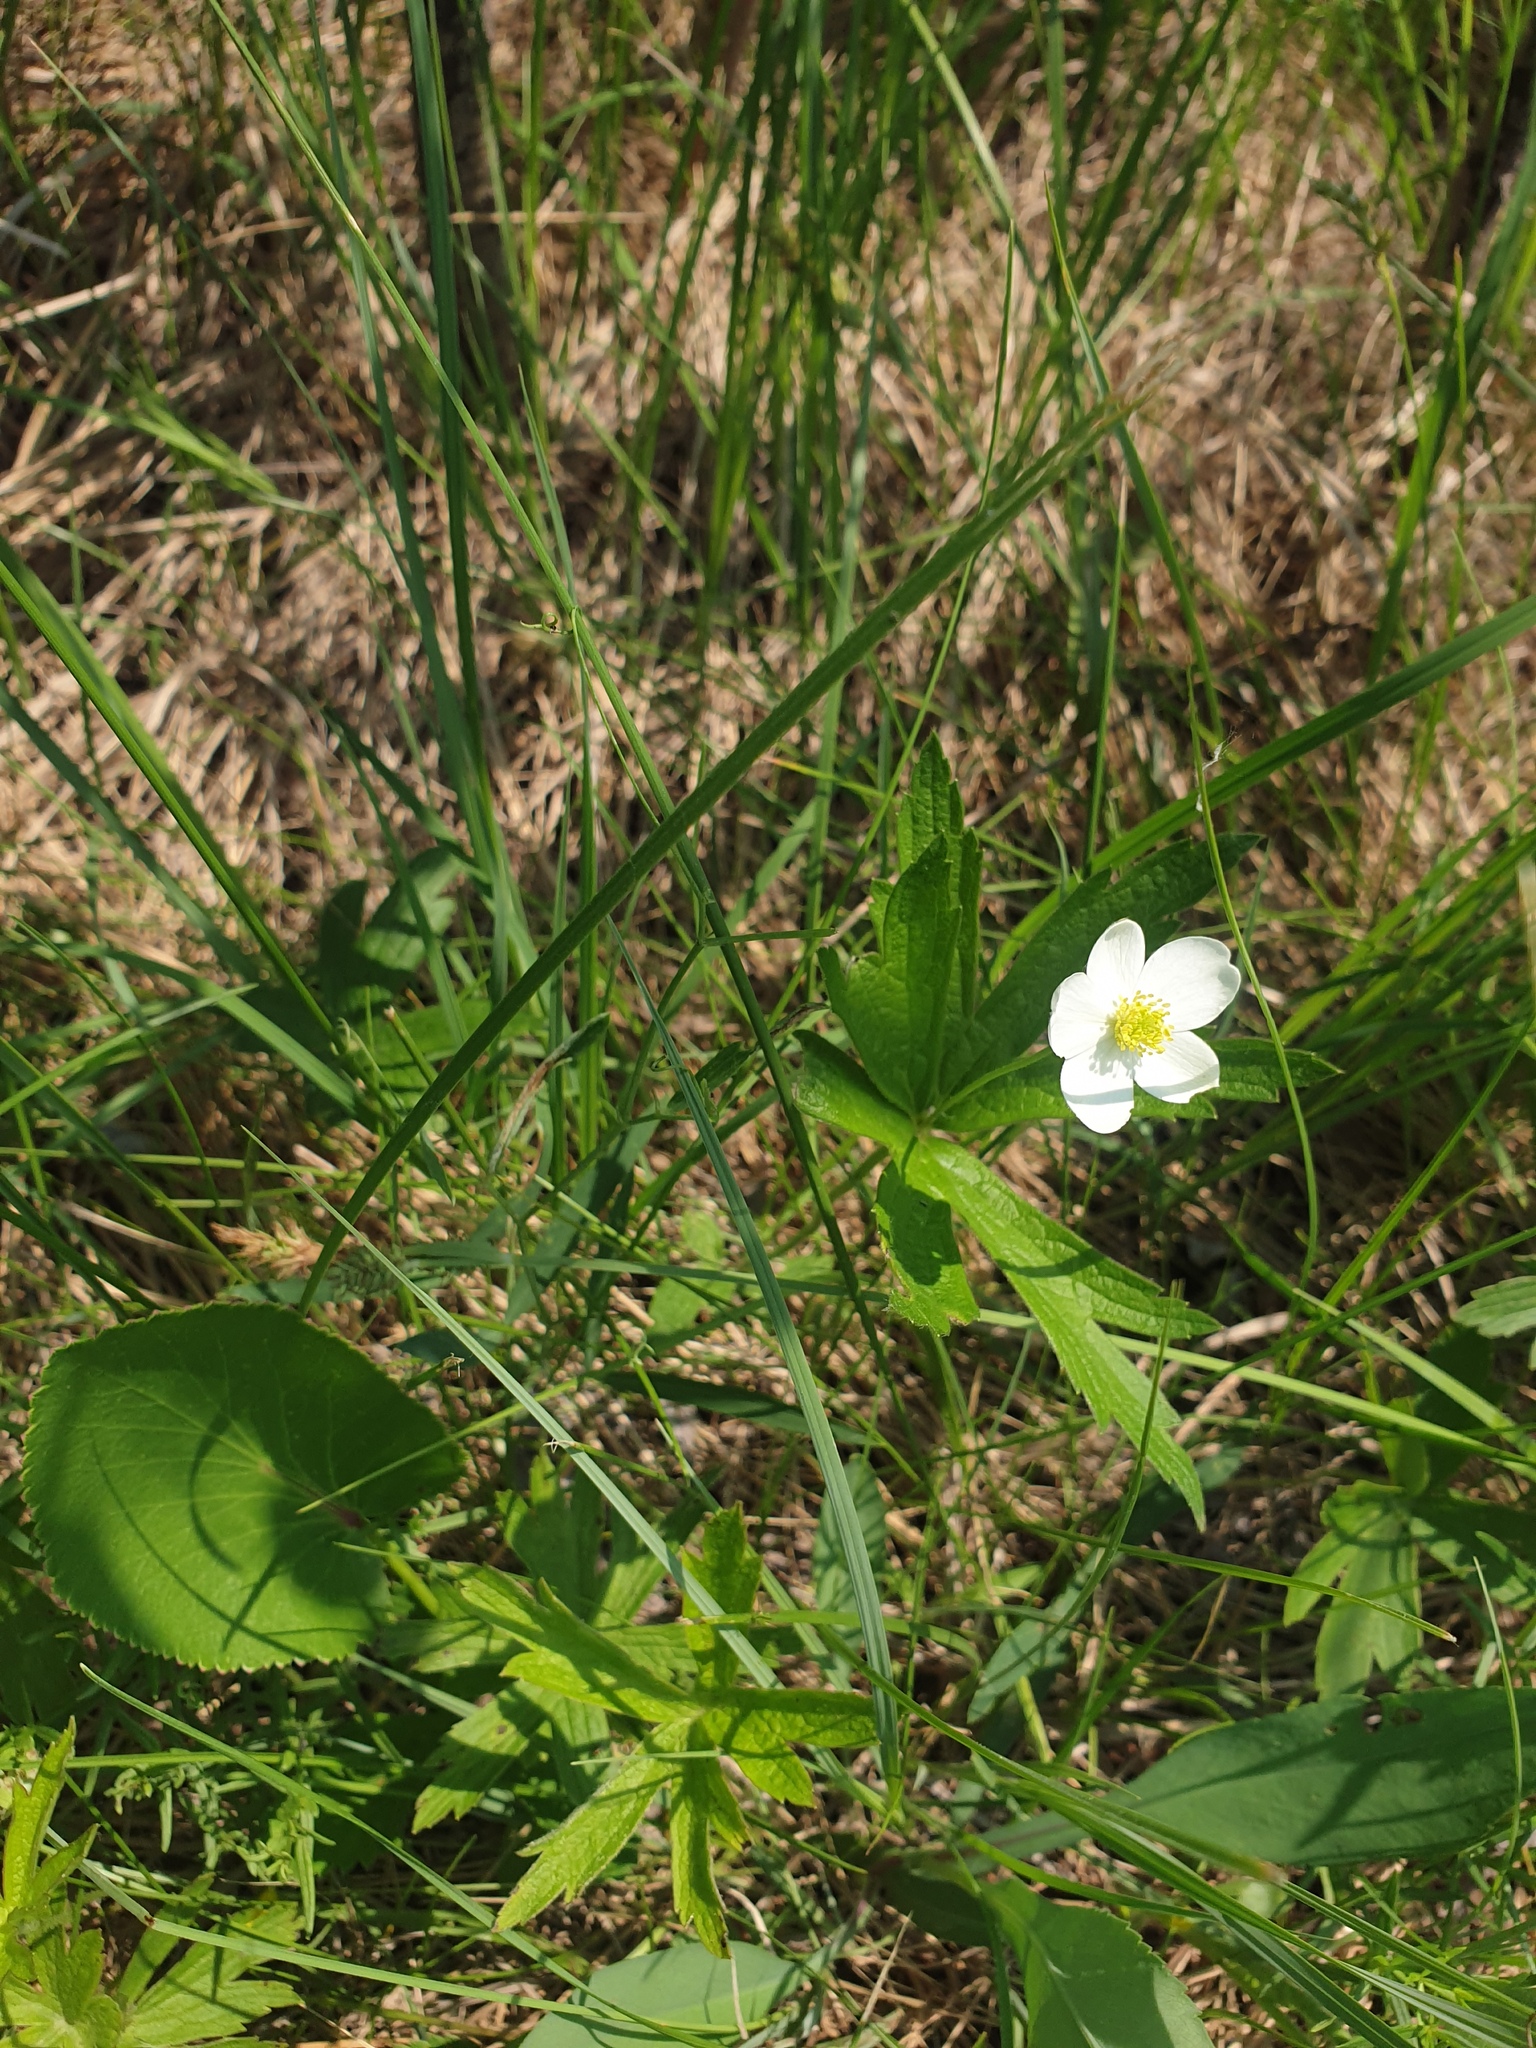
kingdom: Plantae
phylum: Tracheophyta
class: Magnoliopsida
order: Ranunculales
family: Ranunculaceae
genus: Anemonastrum
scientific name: Anemonastrum canadense
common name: Canada anemone
